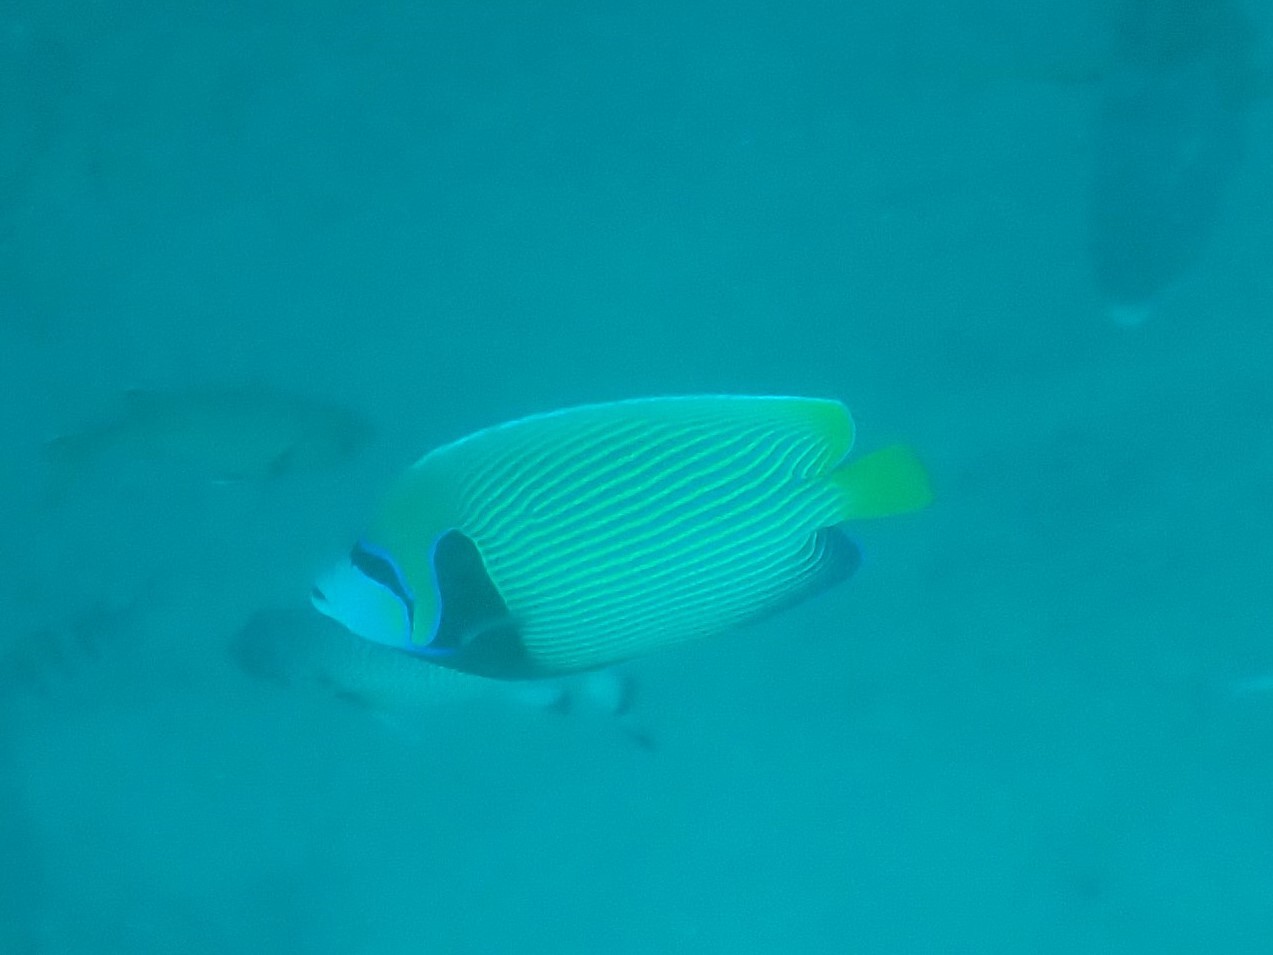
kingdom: Animalia
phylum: Chordata
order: Perciformes
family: Pomacanthidae
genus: Pomacanthus
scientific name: Pomacanthus imperator
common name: Emperor angelfish
